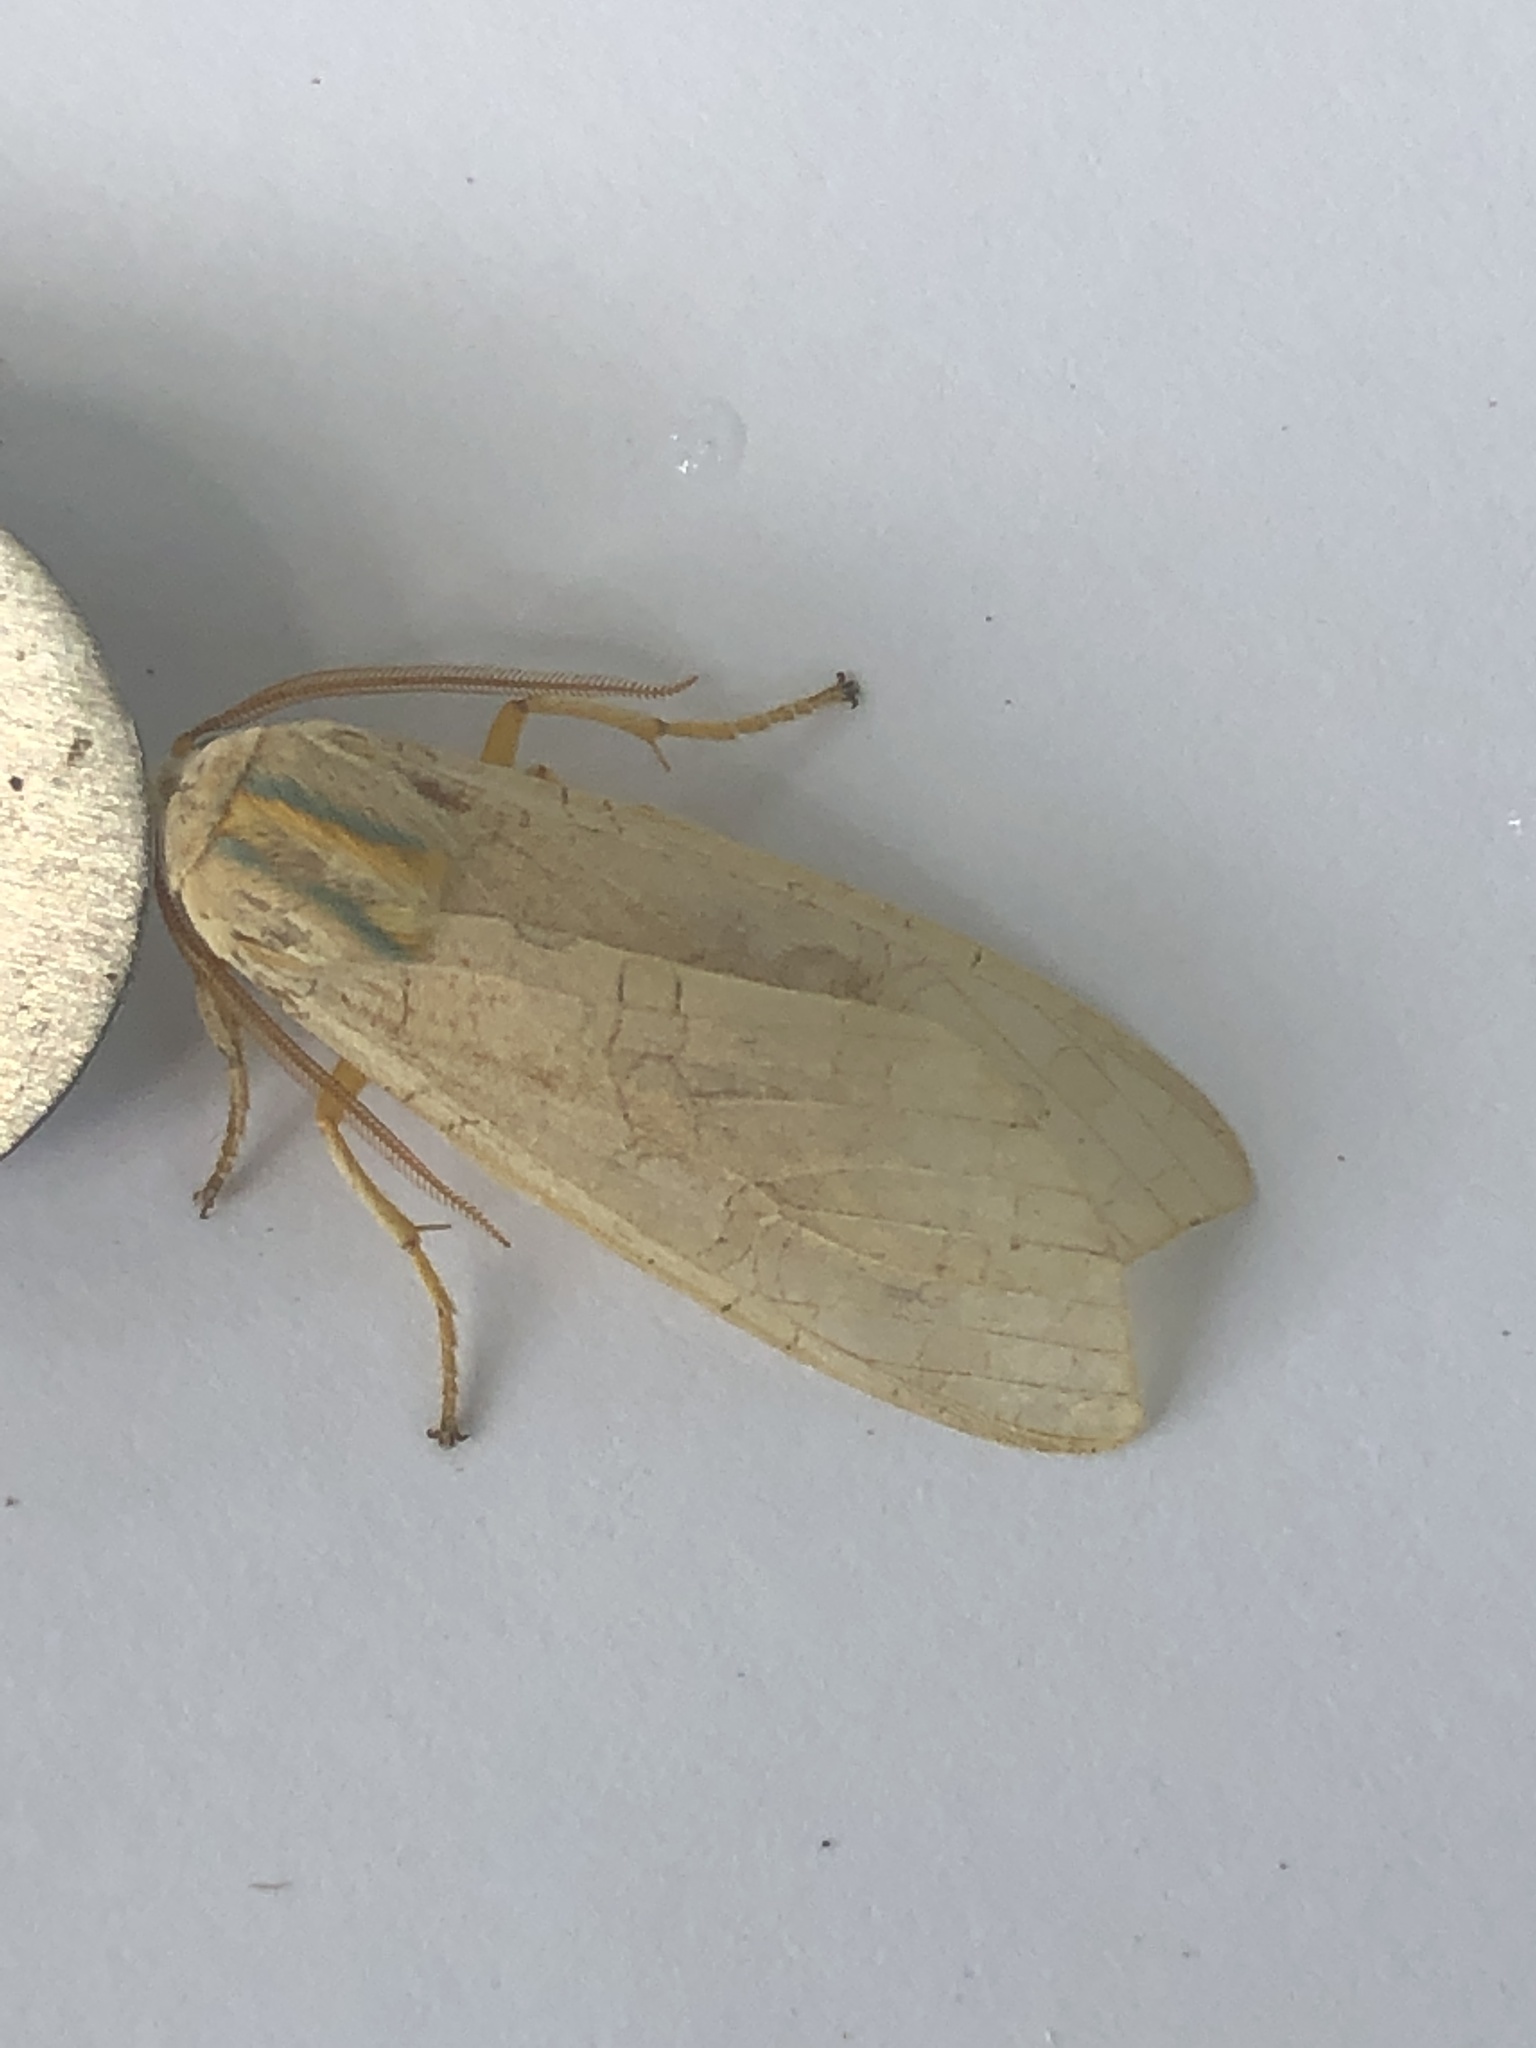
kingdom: Animalia
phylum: Arthropoda
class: Insecta
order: Lepidoptera
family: Erebidae
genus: Halysidota
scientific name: Halysidota tessellaris
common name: Banded tussock moth
